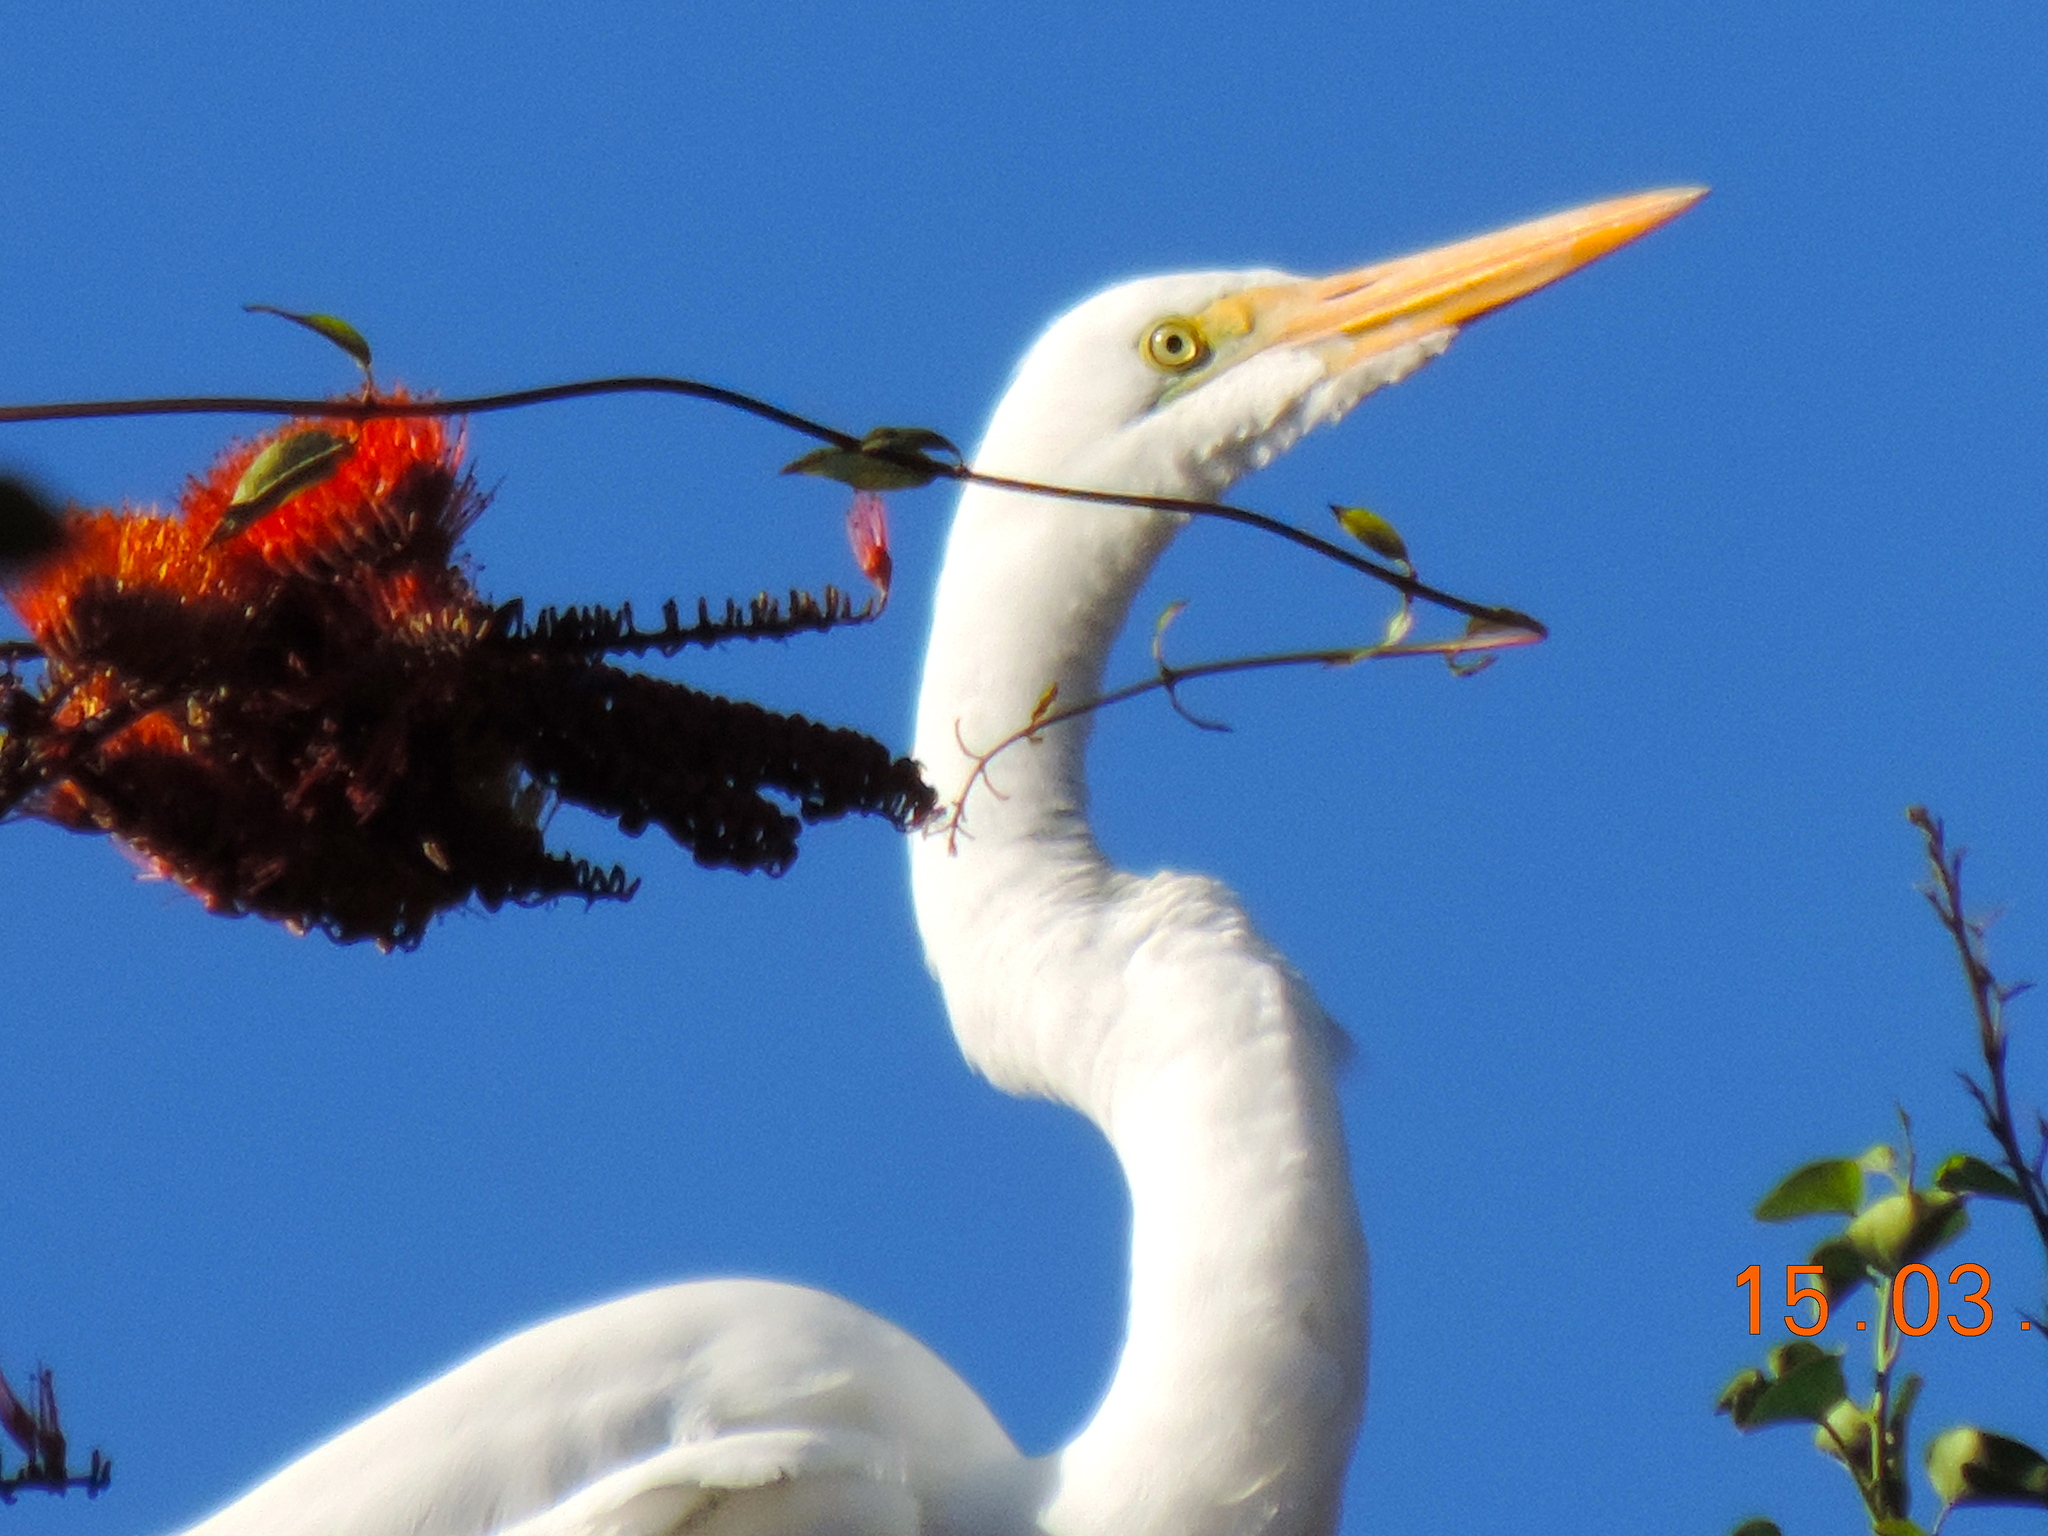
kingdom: Animalia
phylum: Chordata
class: Aves
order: Pelecaniformes
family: Ardeidae
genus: Ardea
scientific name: Ardea alba
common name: Great egret
